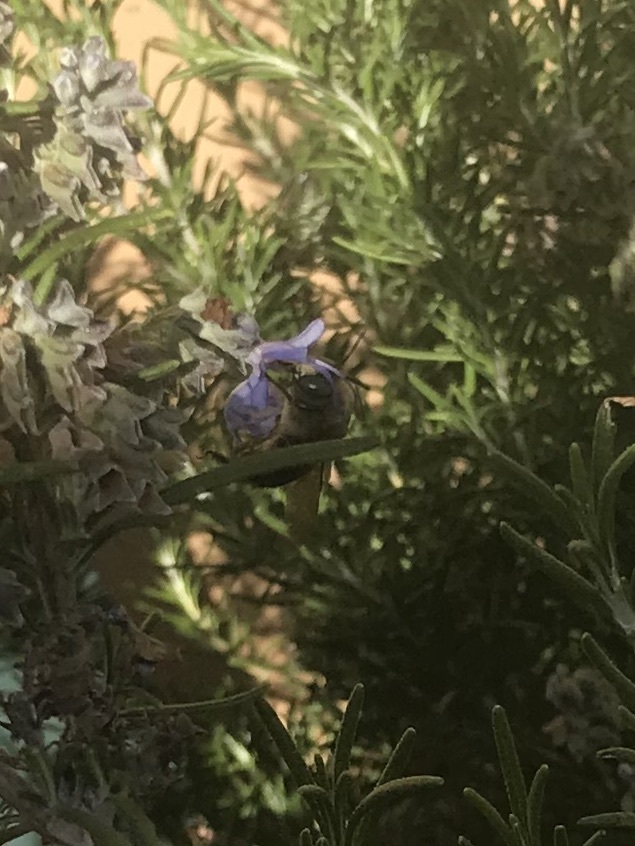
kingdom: Animalia
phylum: Arthropoda
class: Insecta
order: Hymenoptera
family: Apidae
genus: Xylocopa
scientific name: Xylocopa tabaniformis
